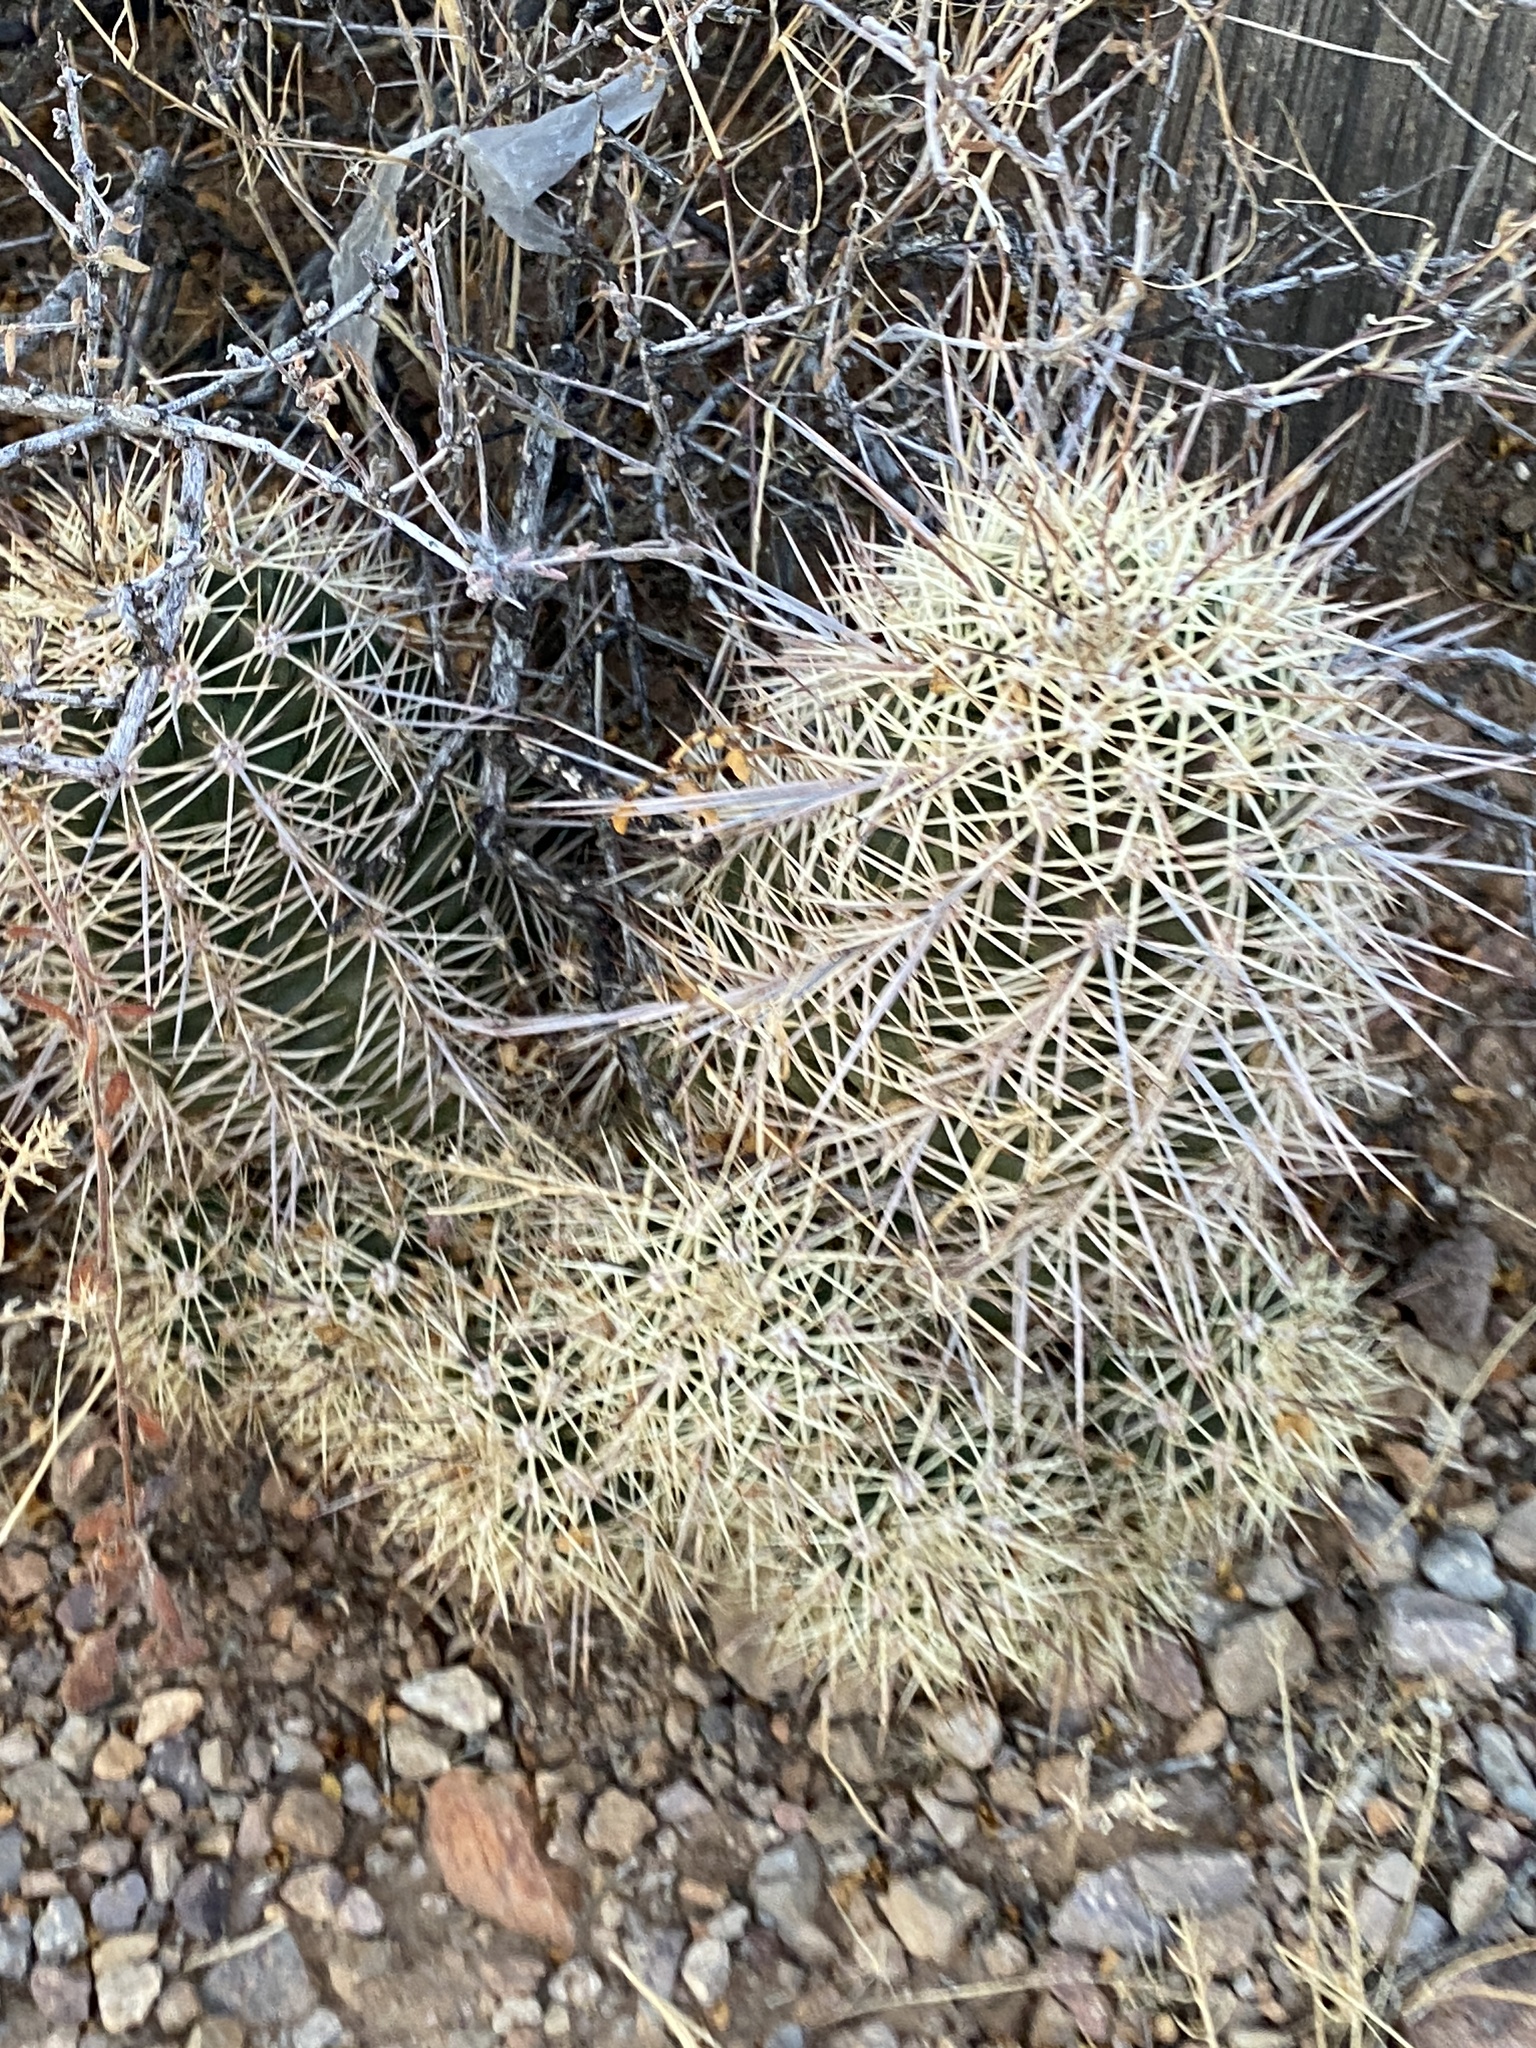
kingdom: Plantae
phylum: Tracheophyta
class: Magnoliopsida
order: Caryophyllales
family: Cactaceae
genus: Echinocereus
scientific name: Echinocereus coccineus
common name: Scarlet hedgehog cactus
